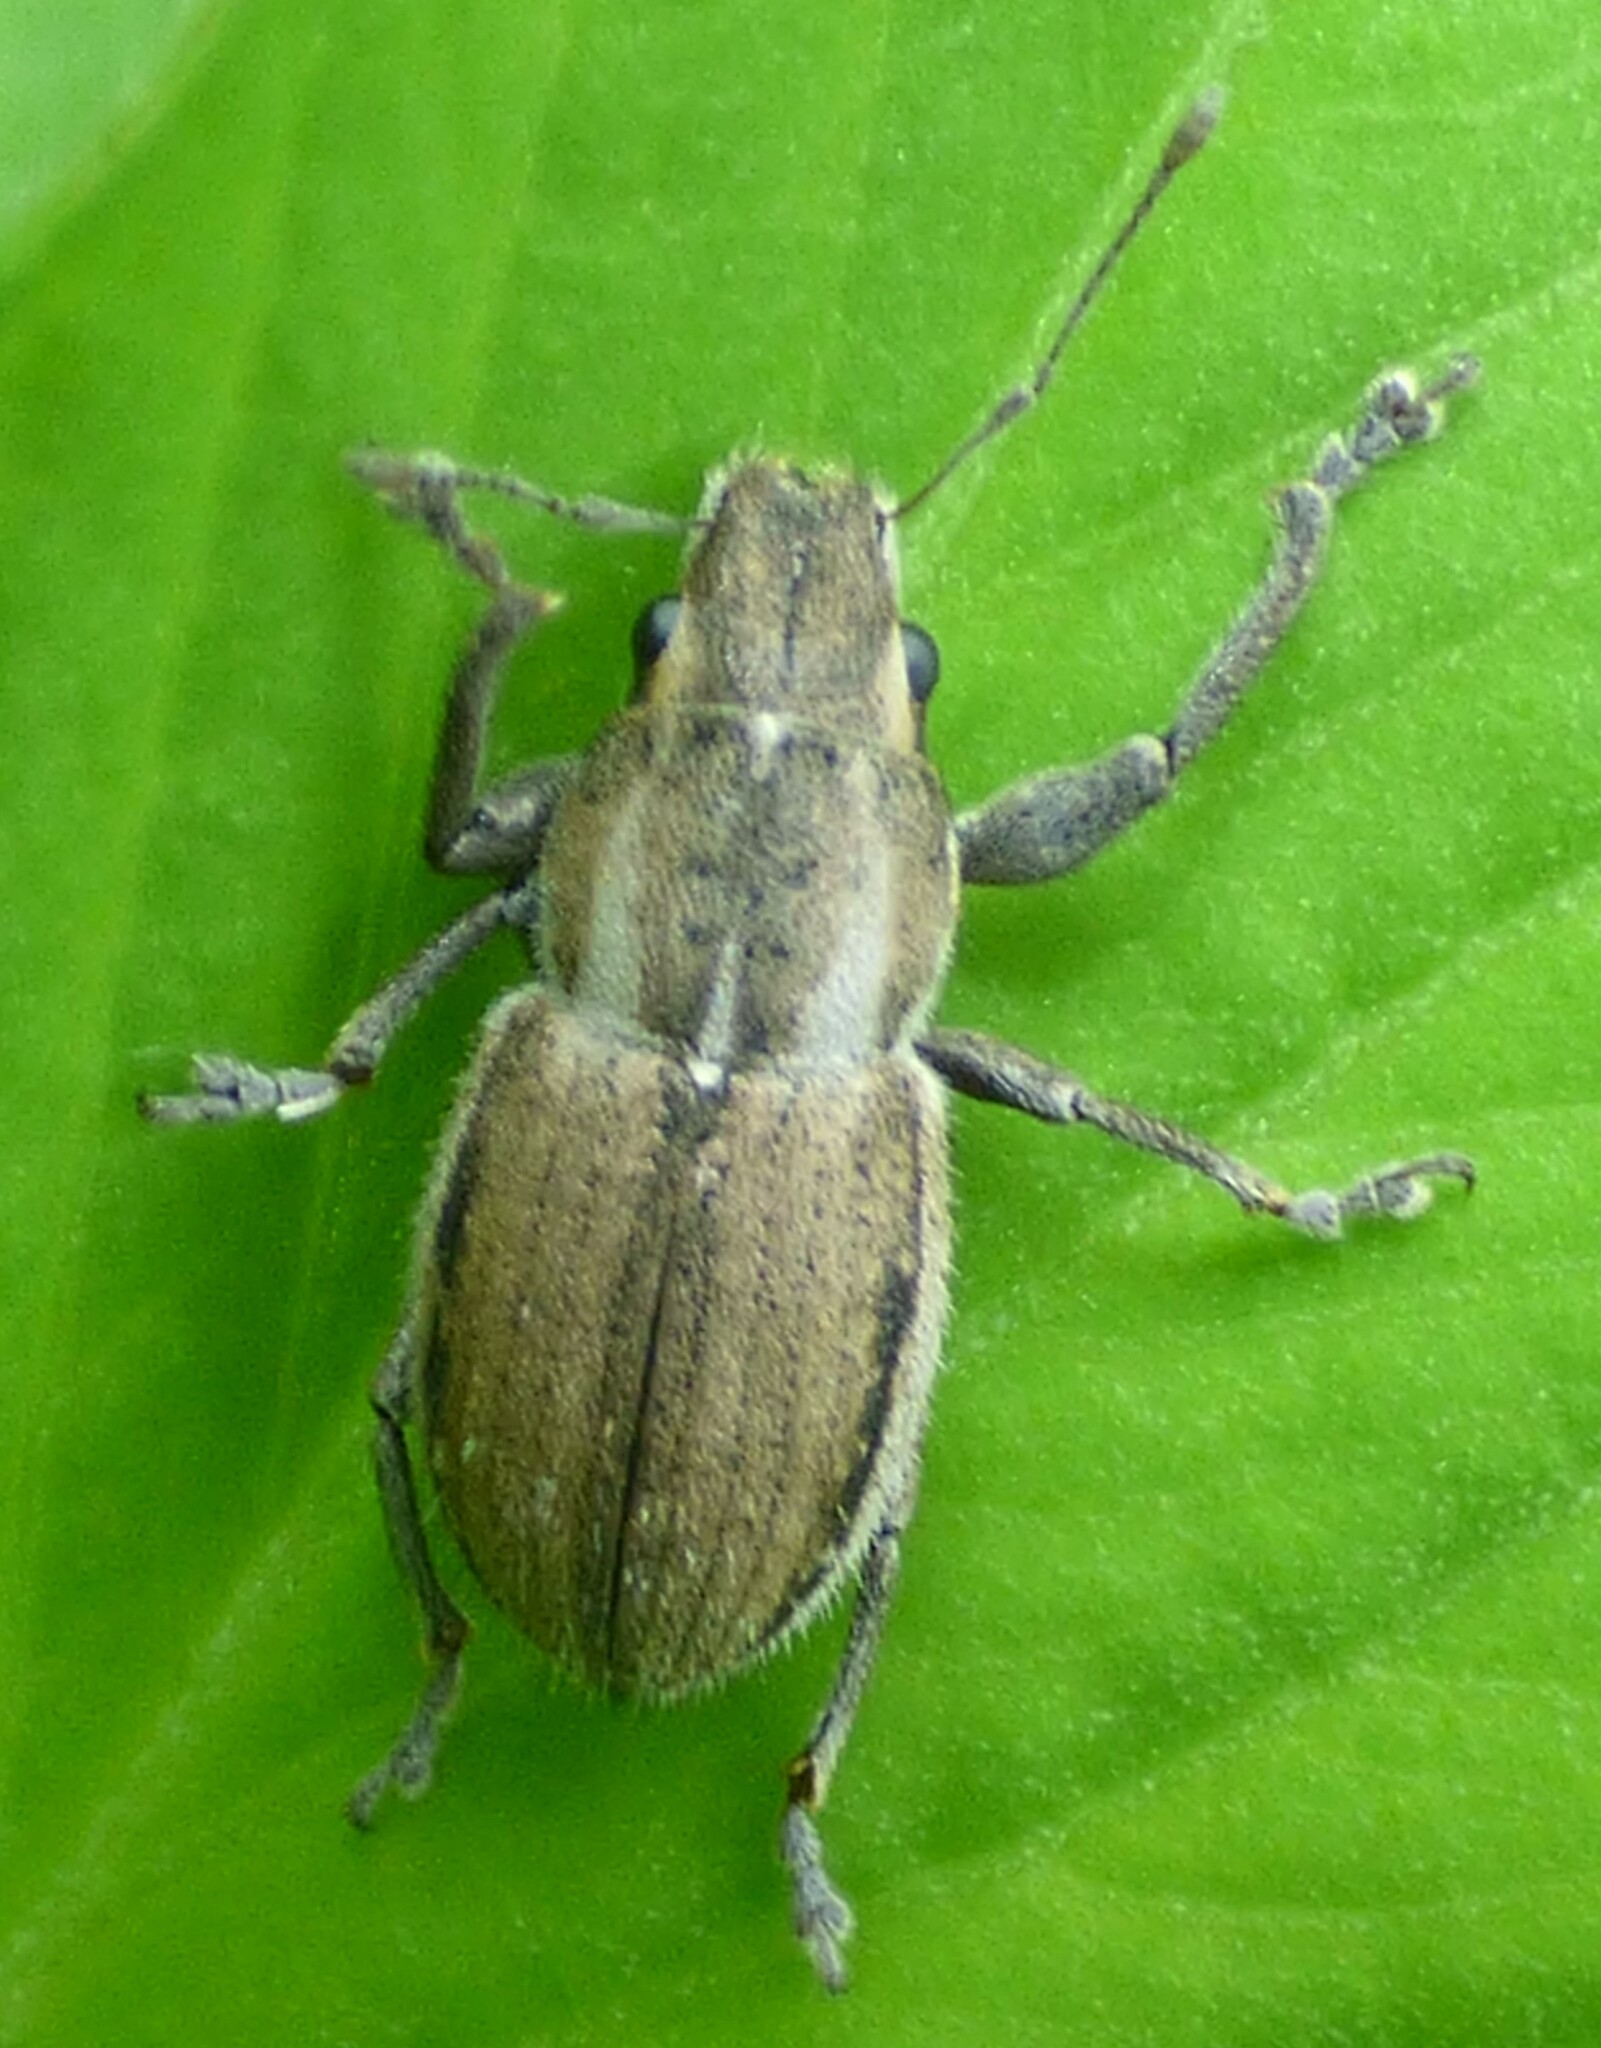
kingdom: Animalia
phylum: Arthropoda
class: Insecta
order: Coleoptera
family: Curculionidae
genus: Naupactus
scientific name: Naupactus peregrinus
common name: Whitefringed beetle
